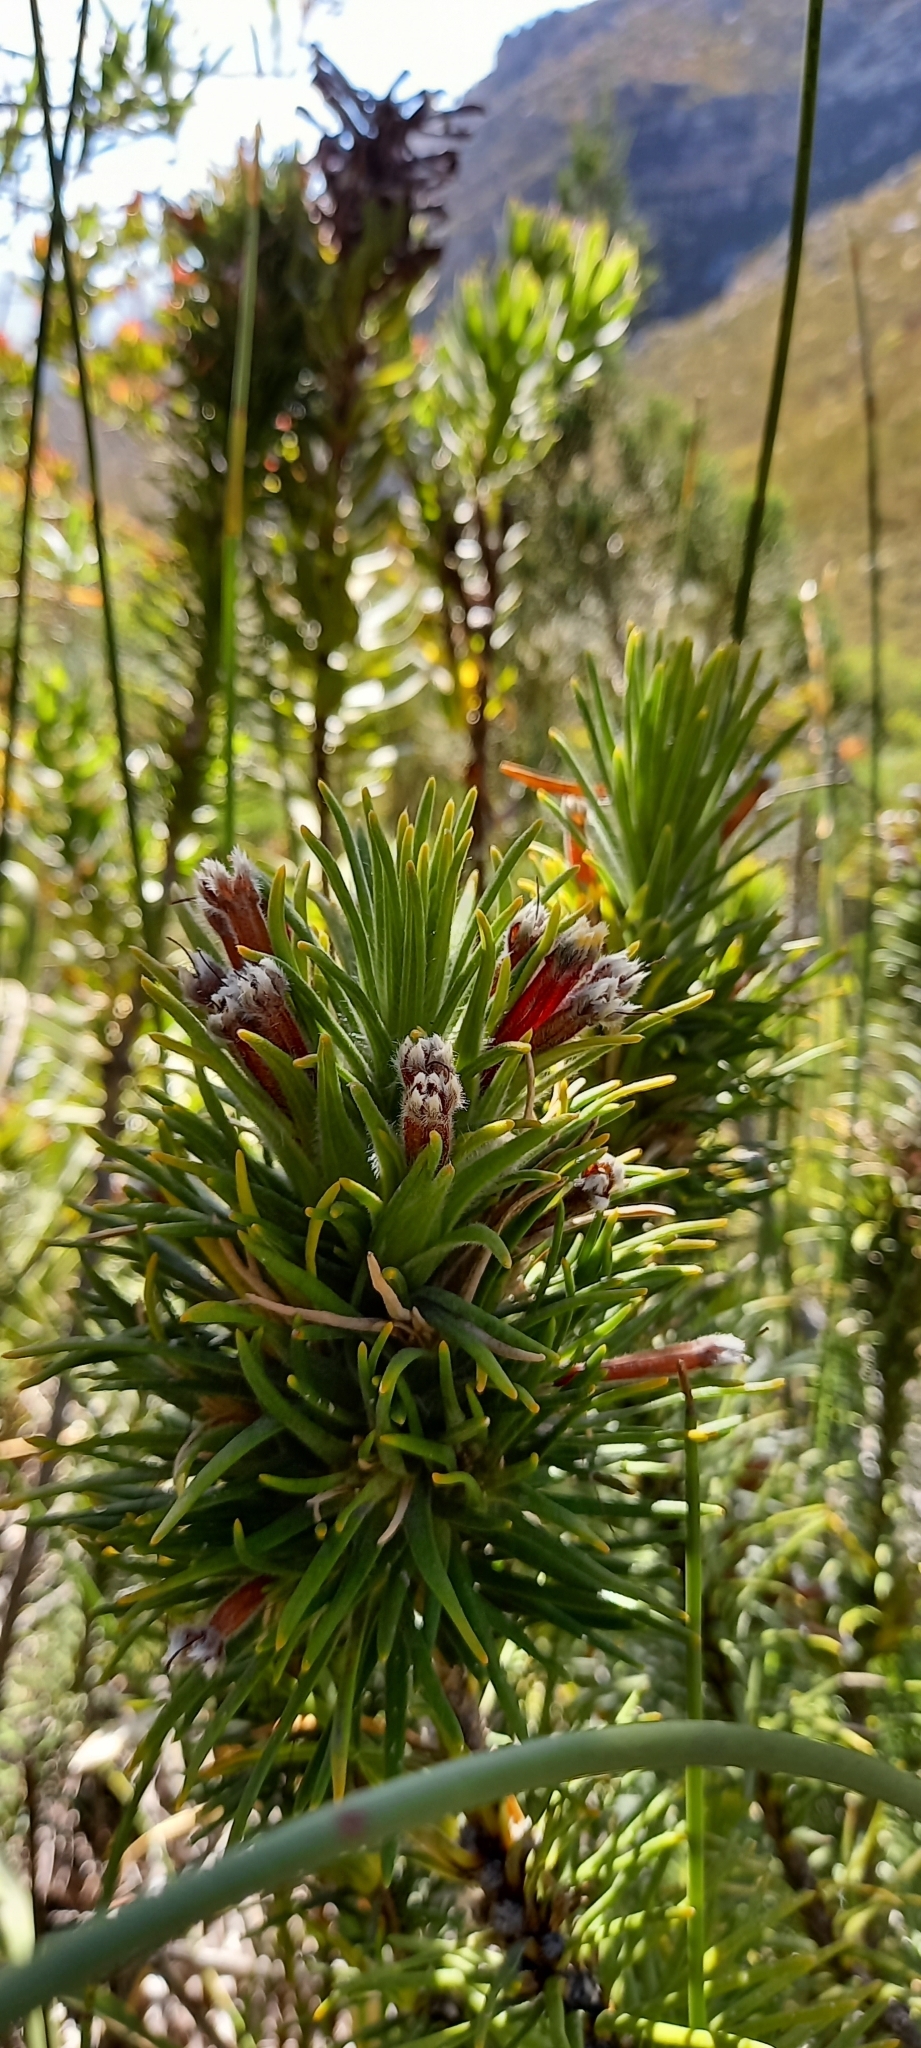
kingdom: Plantae
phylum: Tracheophyta
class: Magnoliopsida
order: Lamiales
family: Stilbaceae
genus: Retzia
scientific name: Retzia capensis
